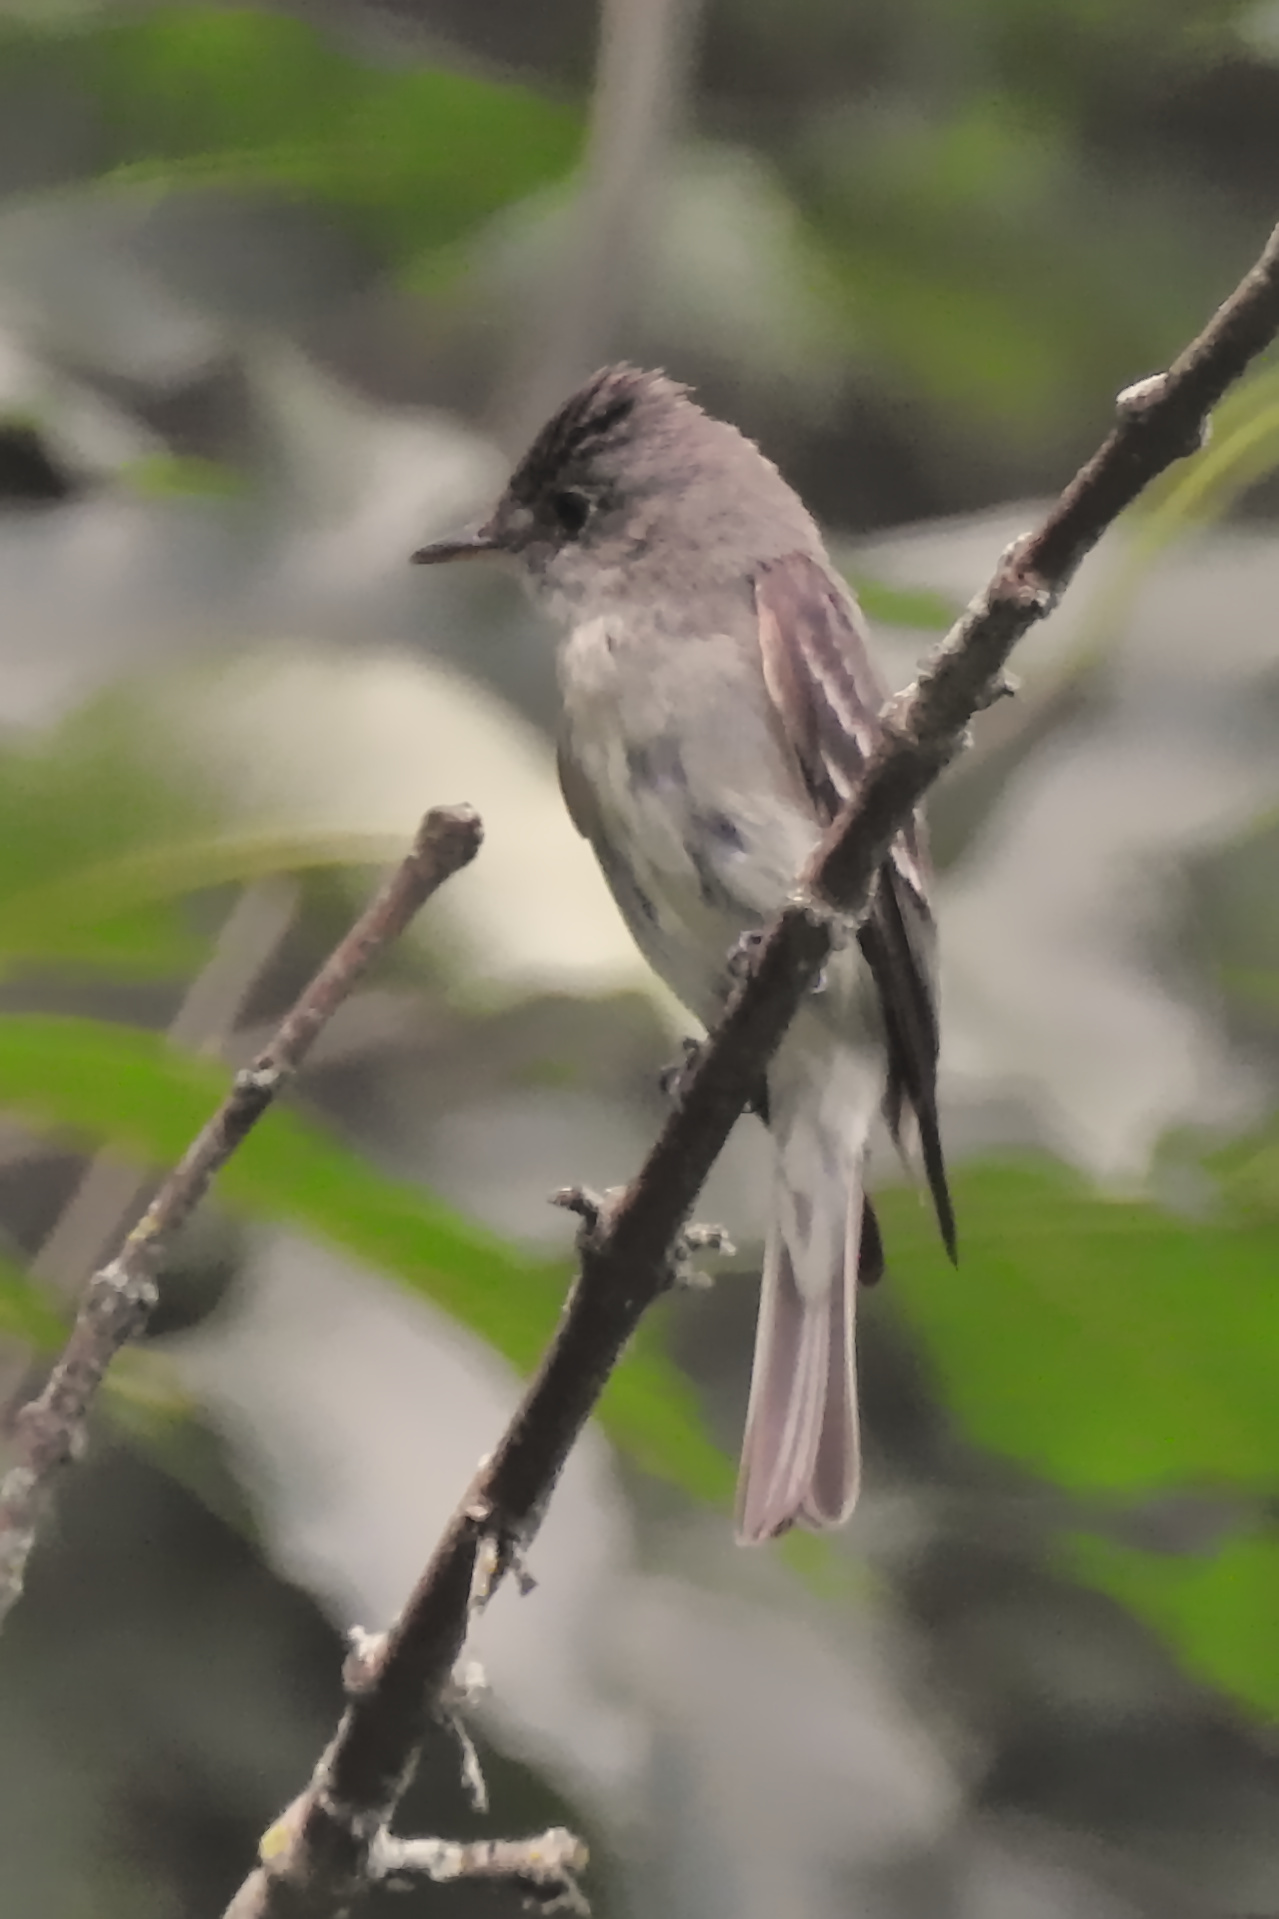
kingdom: Animalia
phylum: Chordata
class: Aves
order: Passeriformes
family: Tyrannidae
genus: Contopus
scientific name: Contopus virens
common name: Eastern wood-pewee
